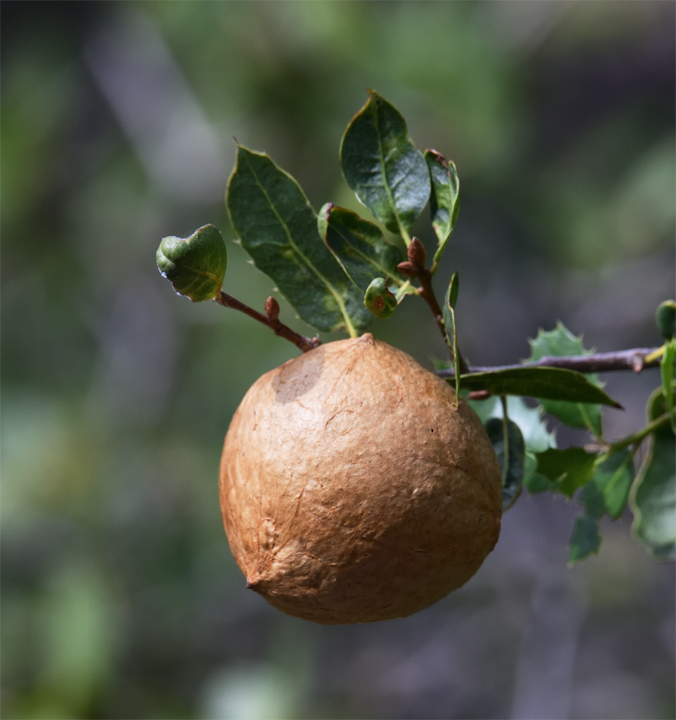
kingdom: Animalia
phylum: Arthropoda
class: Insecta
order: Hymenoptera
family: Cynipidae
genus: Amphibolips
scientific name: Amphibolips quercuspomiformis
